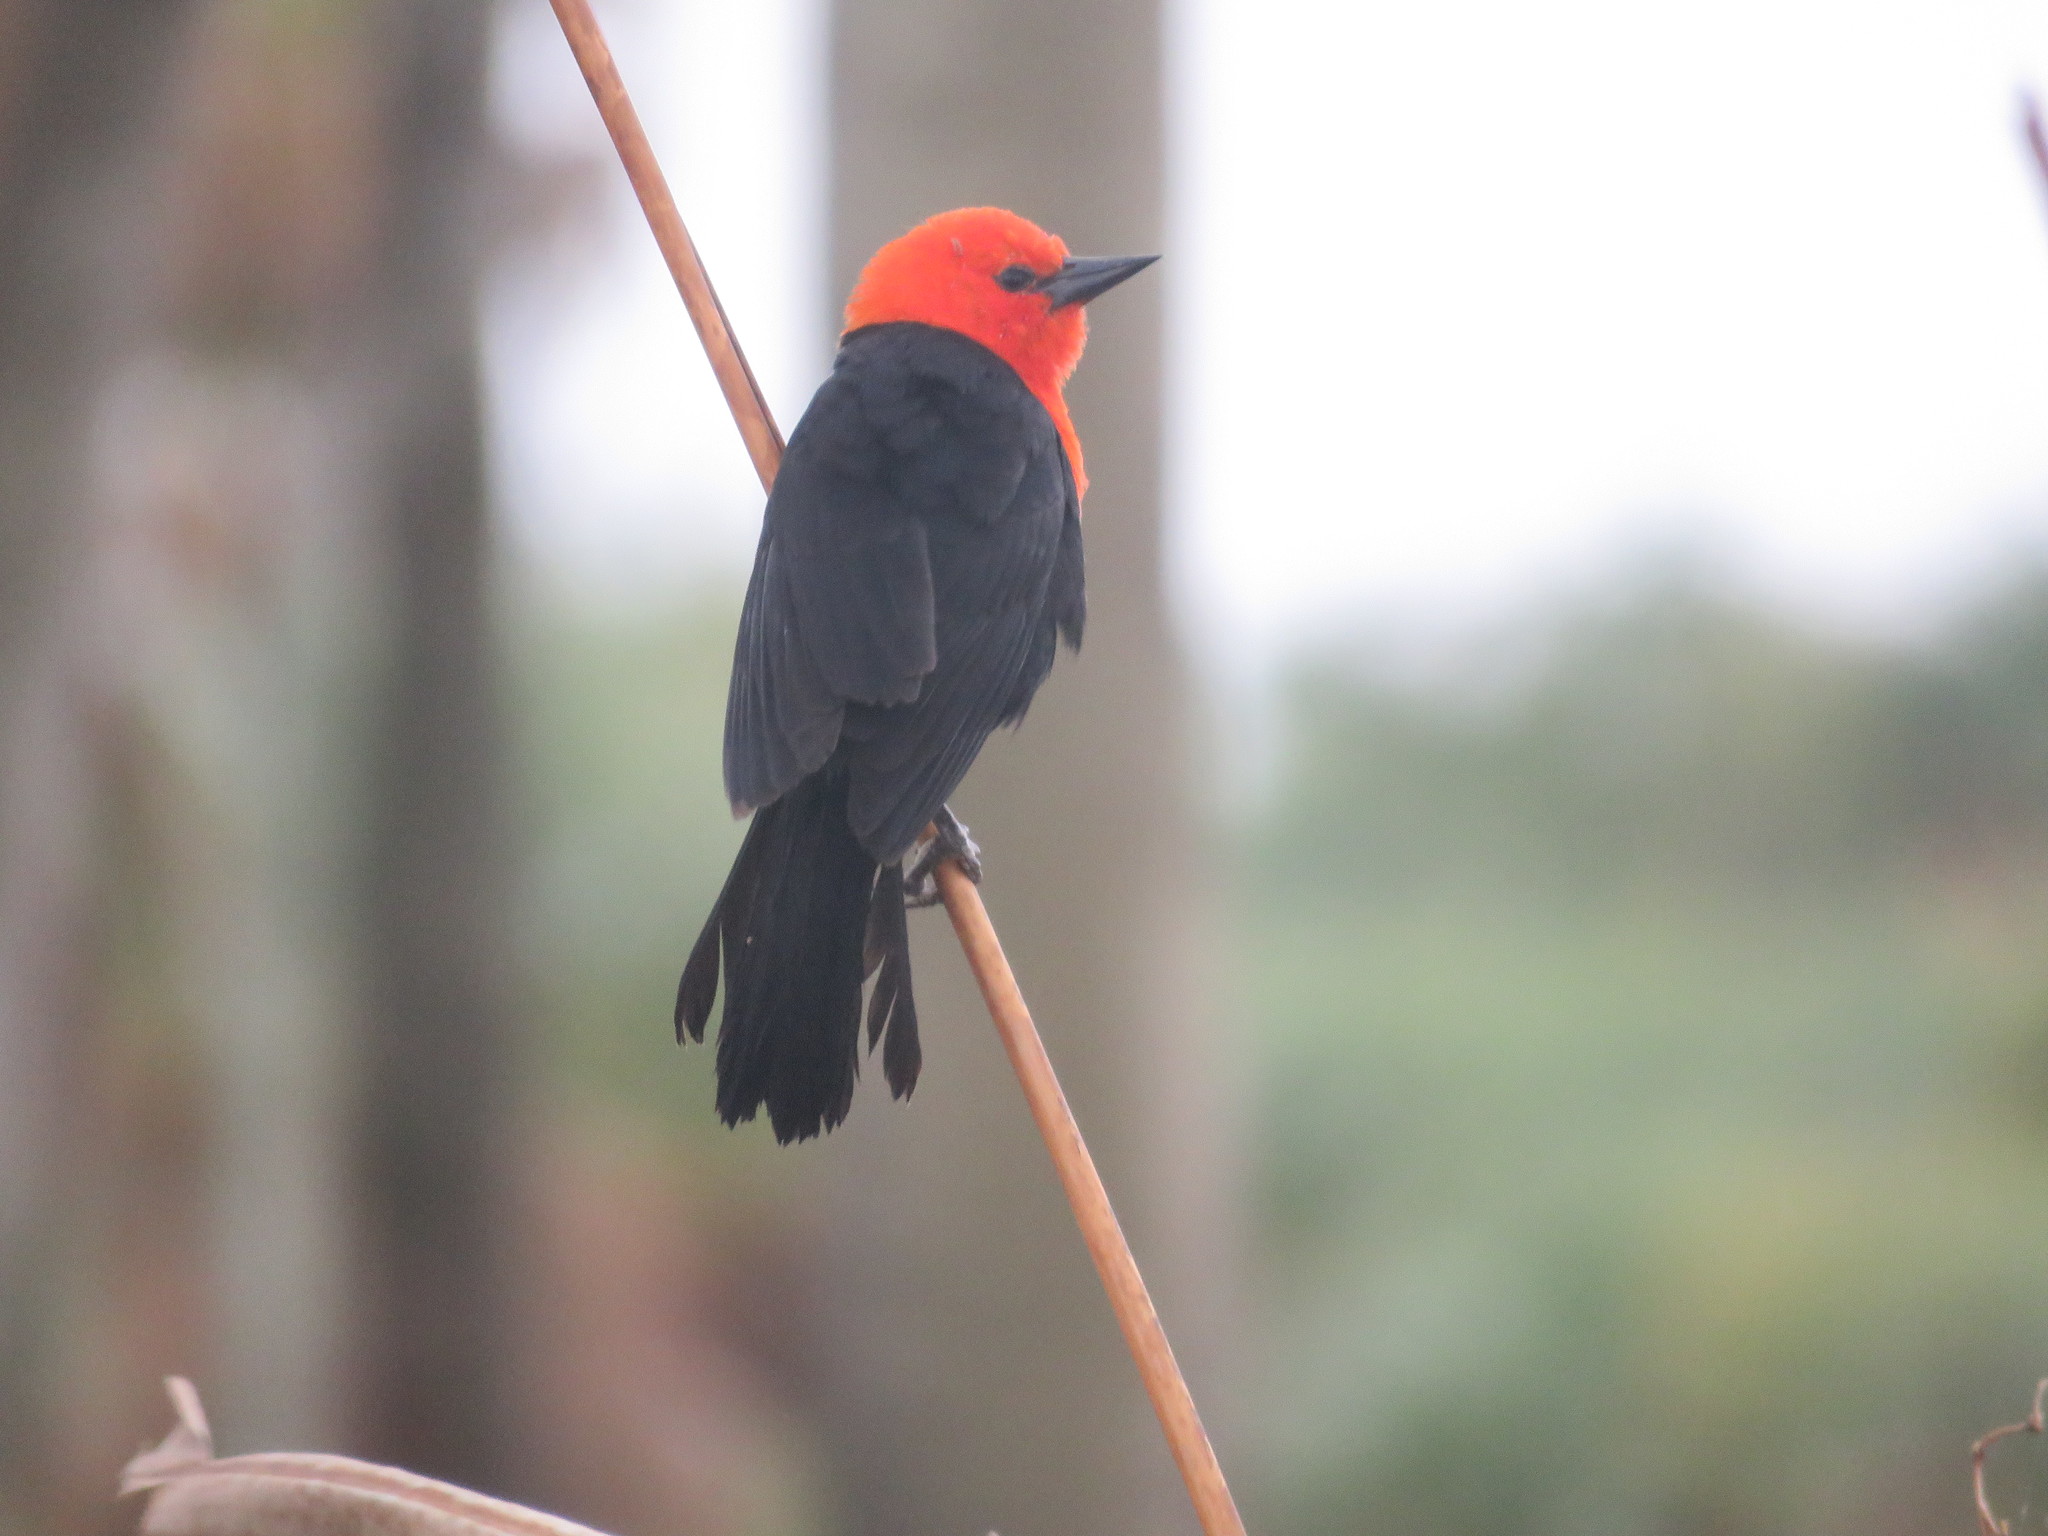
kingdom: Animalia
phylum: Chordata
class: Aves
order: Passeriformes
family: Icteridae
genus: Amblyramphus
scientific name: Amblyramphus holosericeus
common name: Scarlet-headed blackbird
